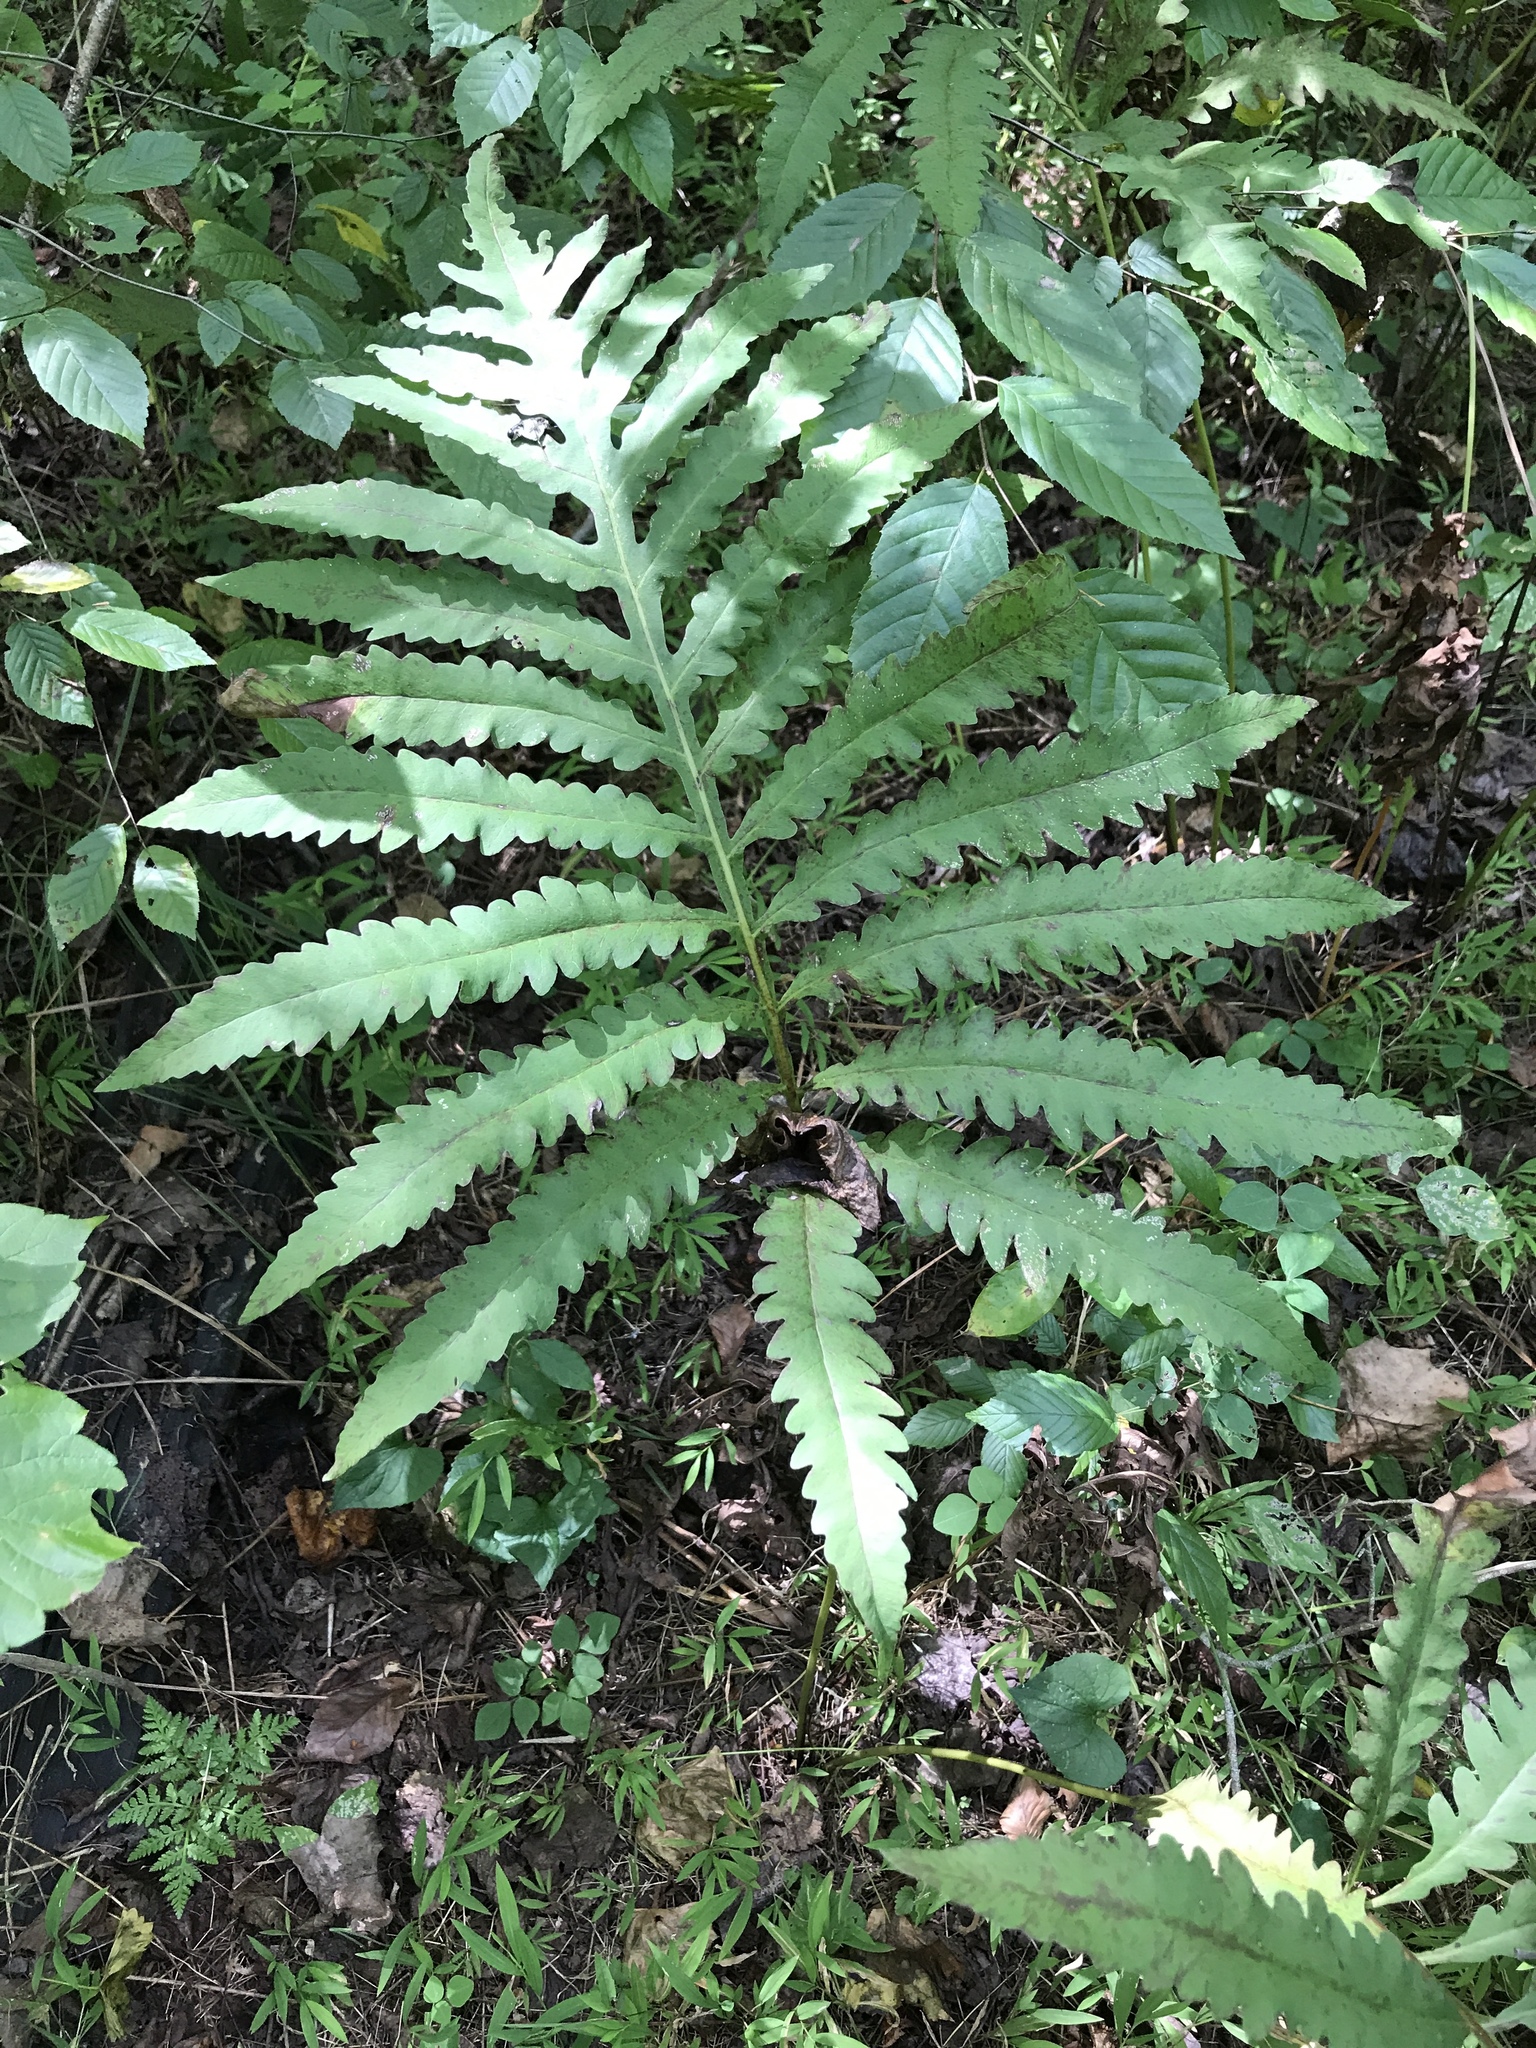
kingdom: Plantae
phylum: Tracheophyta
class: Polypodiopsida
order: Polypodiales
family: Onocleaceae
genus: Onoclea
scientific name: Onoclea sensibilis
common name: Sensitive fern
